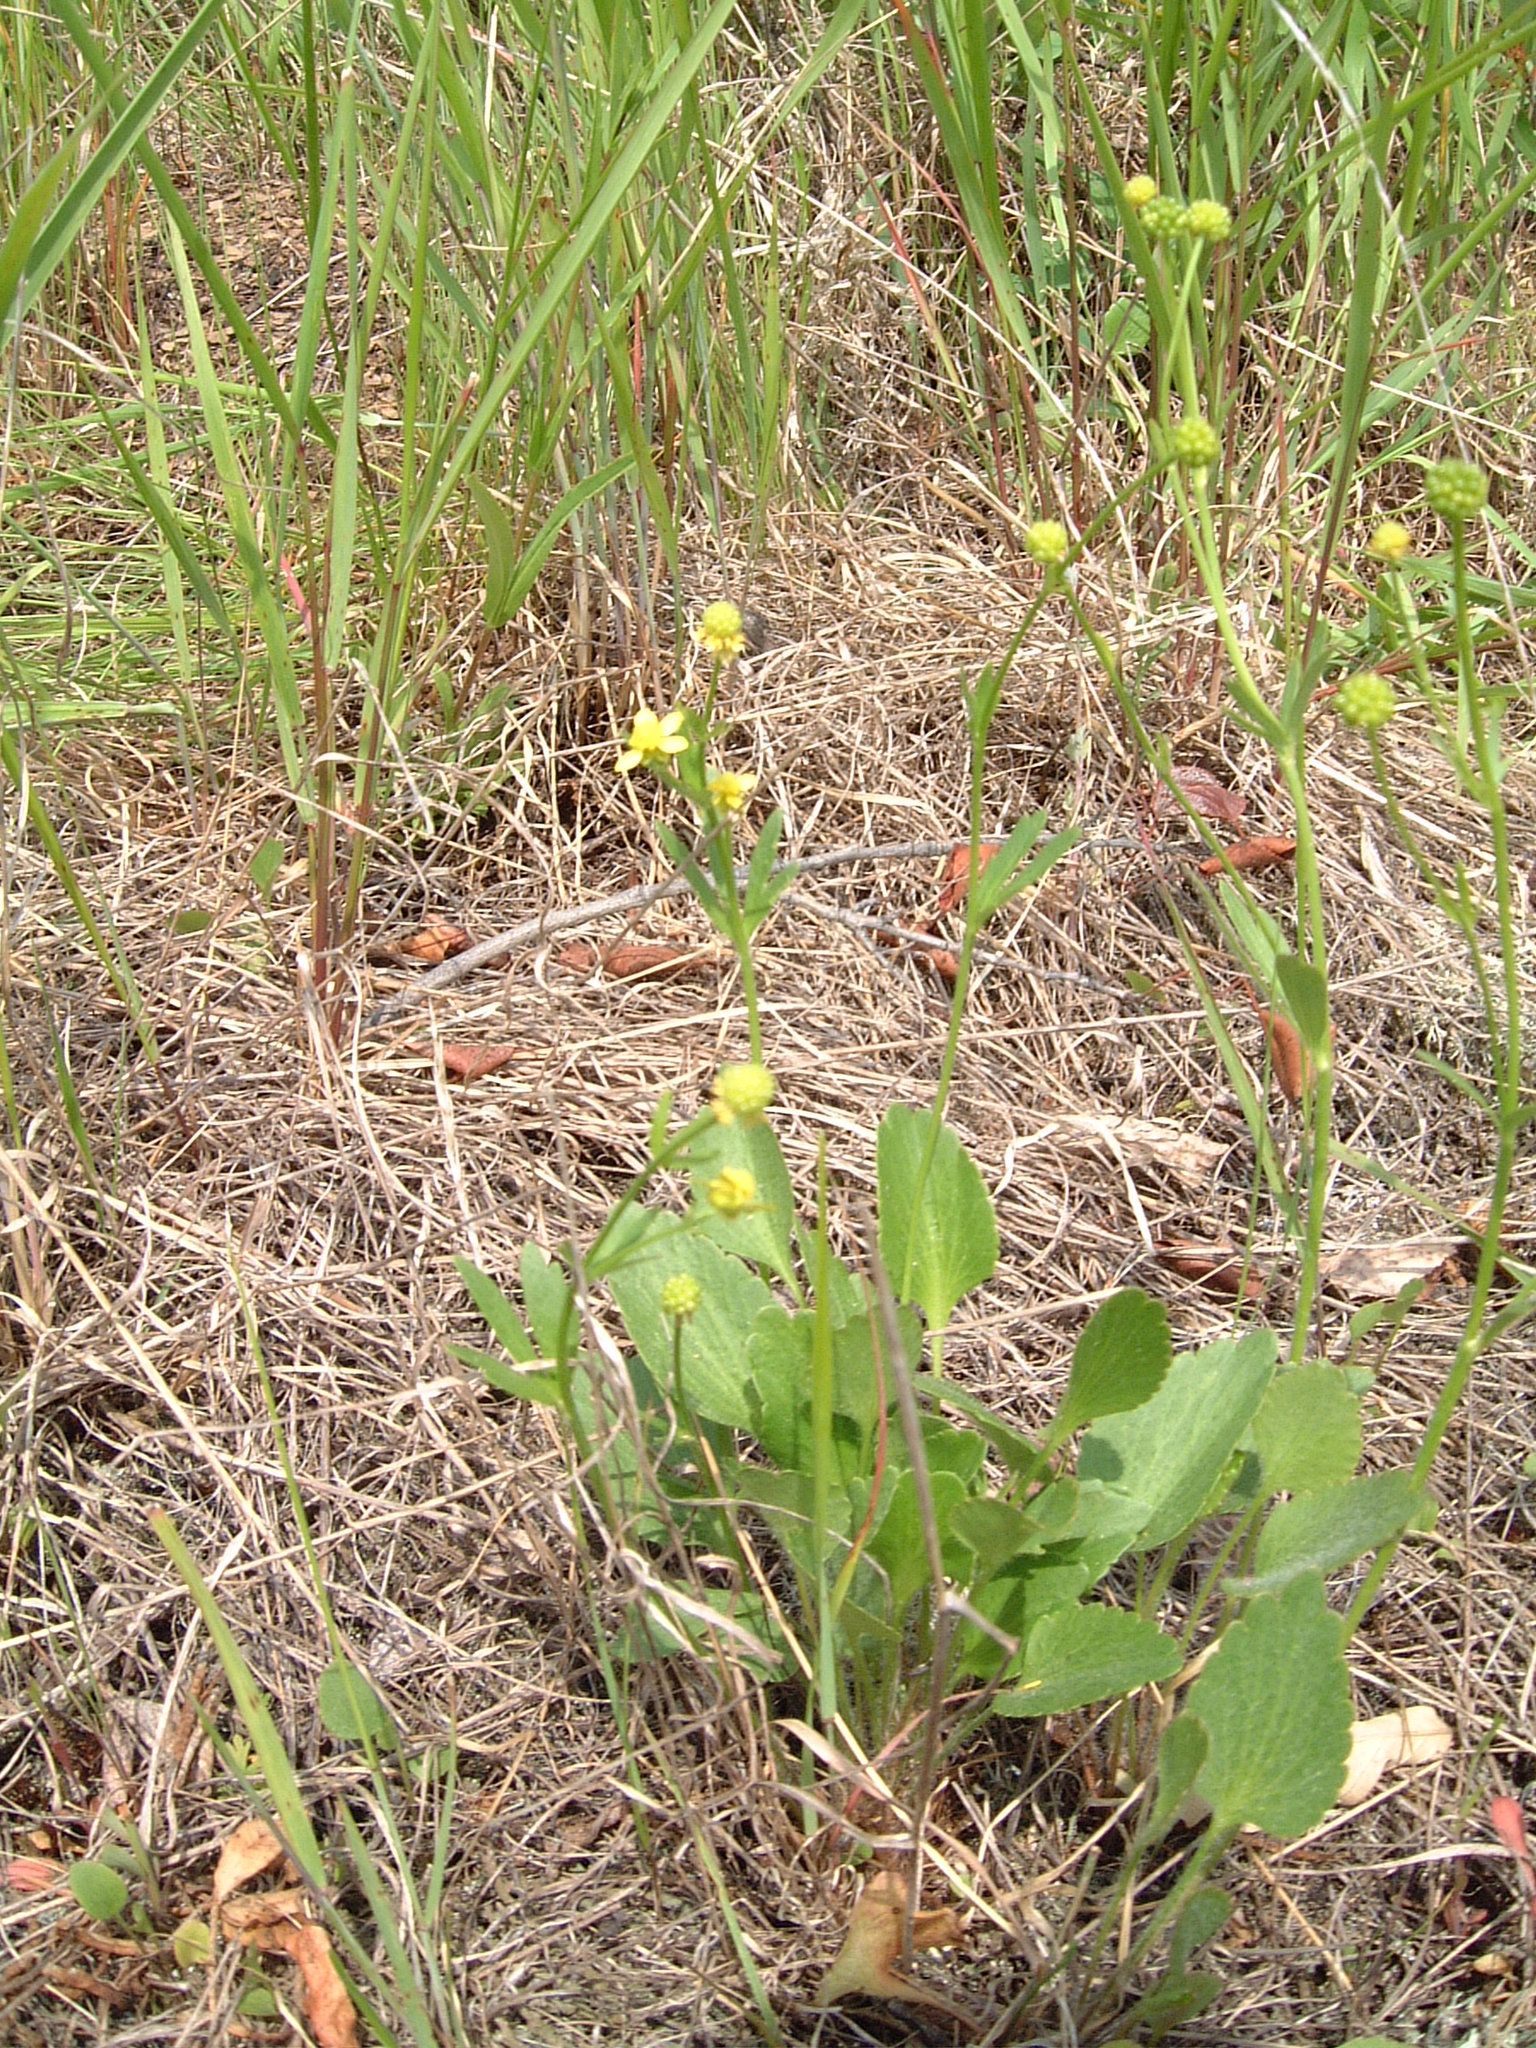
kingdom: Plantae
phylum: Tracheophyta
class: Magnoliopsida
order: Ranunculales
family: Ranunculaceae
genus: Ranunculus
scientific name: Ranunculus rhomboideus
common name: Prairie buttercup
